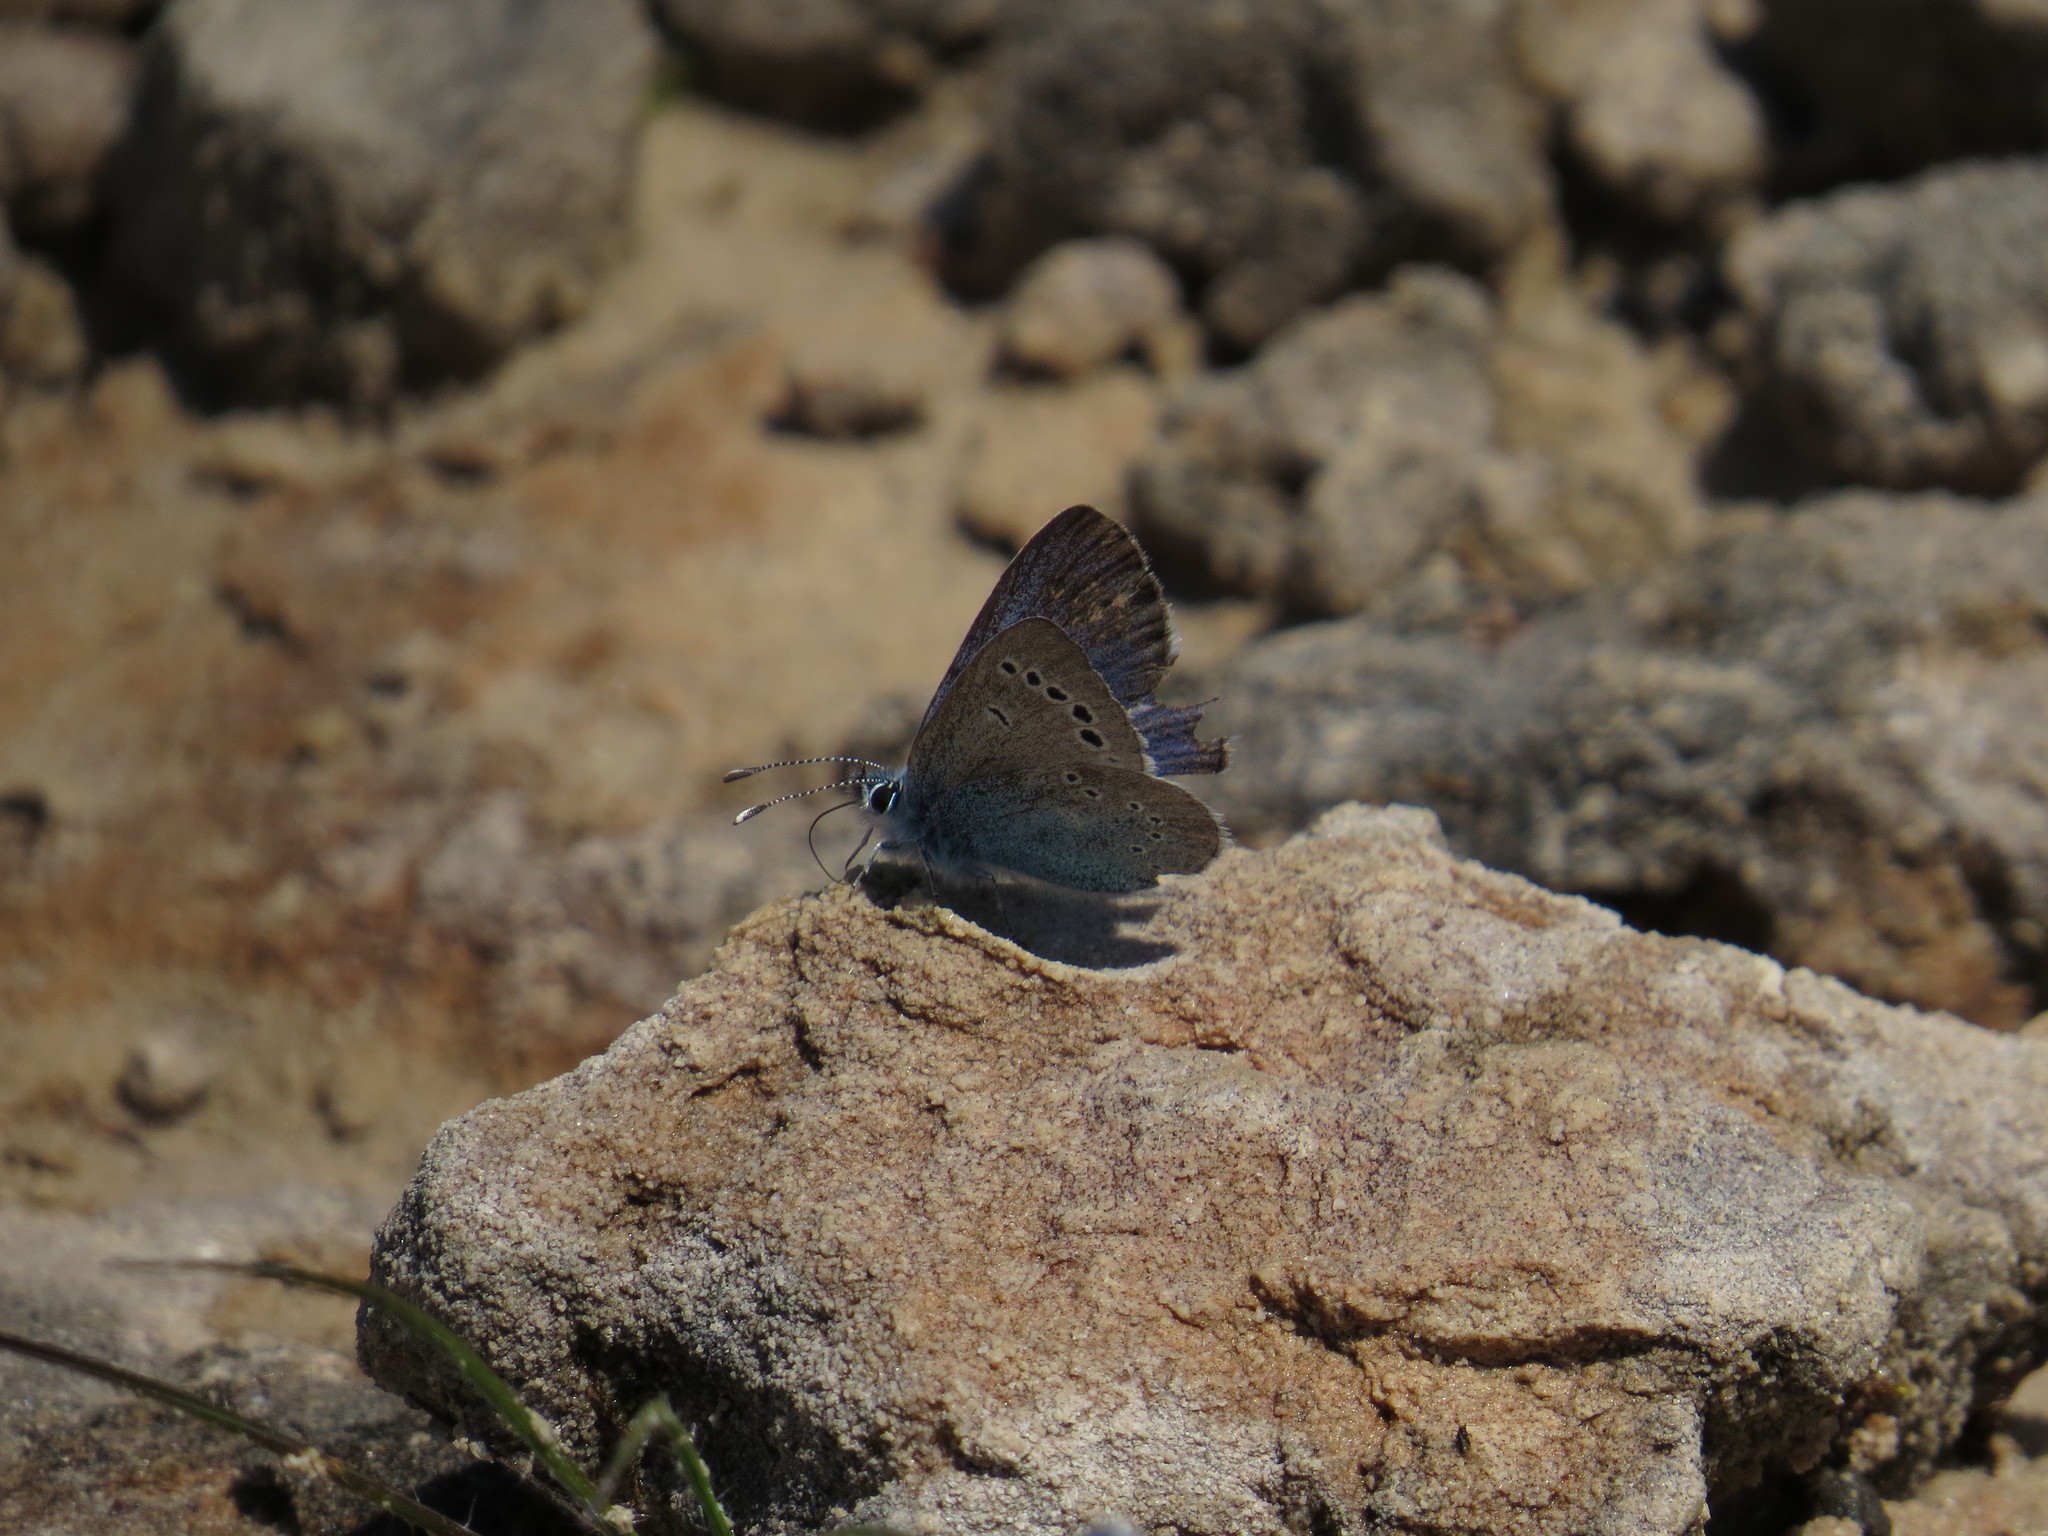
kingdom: Animalia
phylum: Arthropoda
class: Insecta
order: Lepidoptera
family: Lycaenidae
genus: Glaucopsyche
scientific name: Glaucopsyche alexis
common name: Green-underside blue
